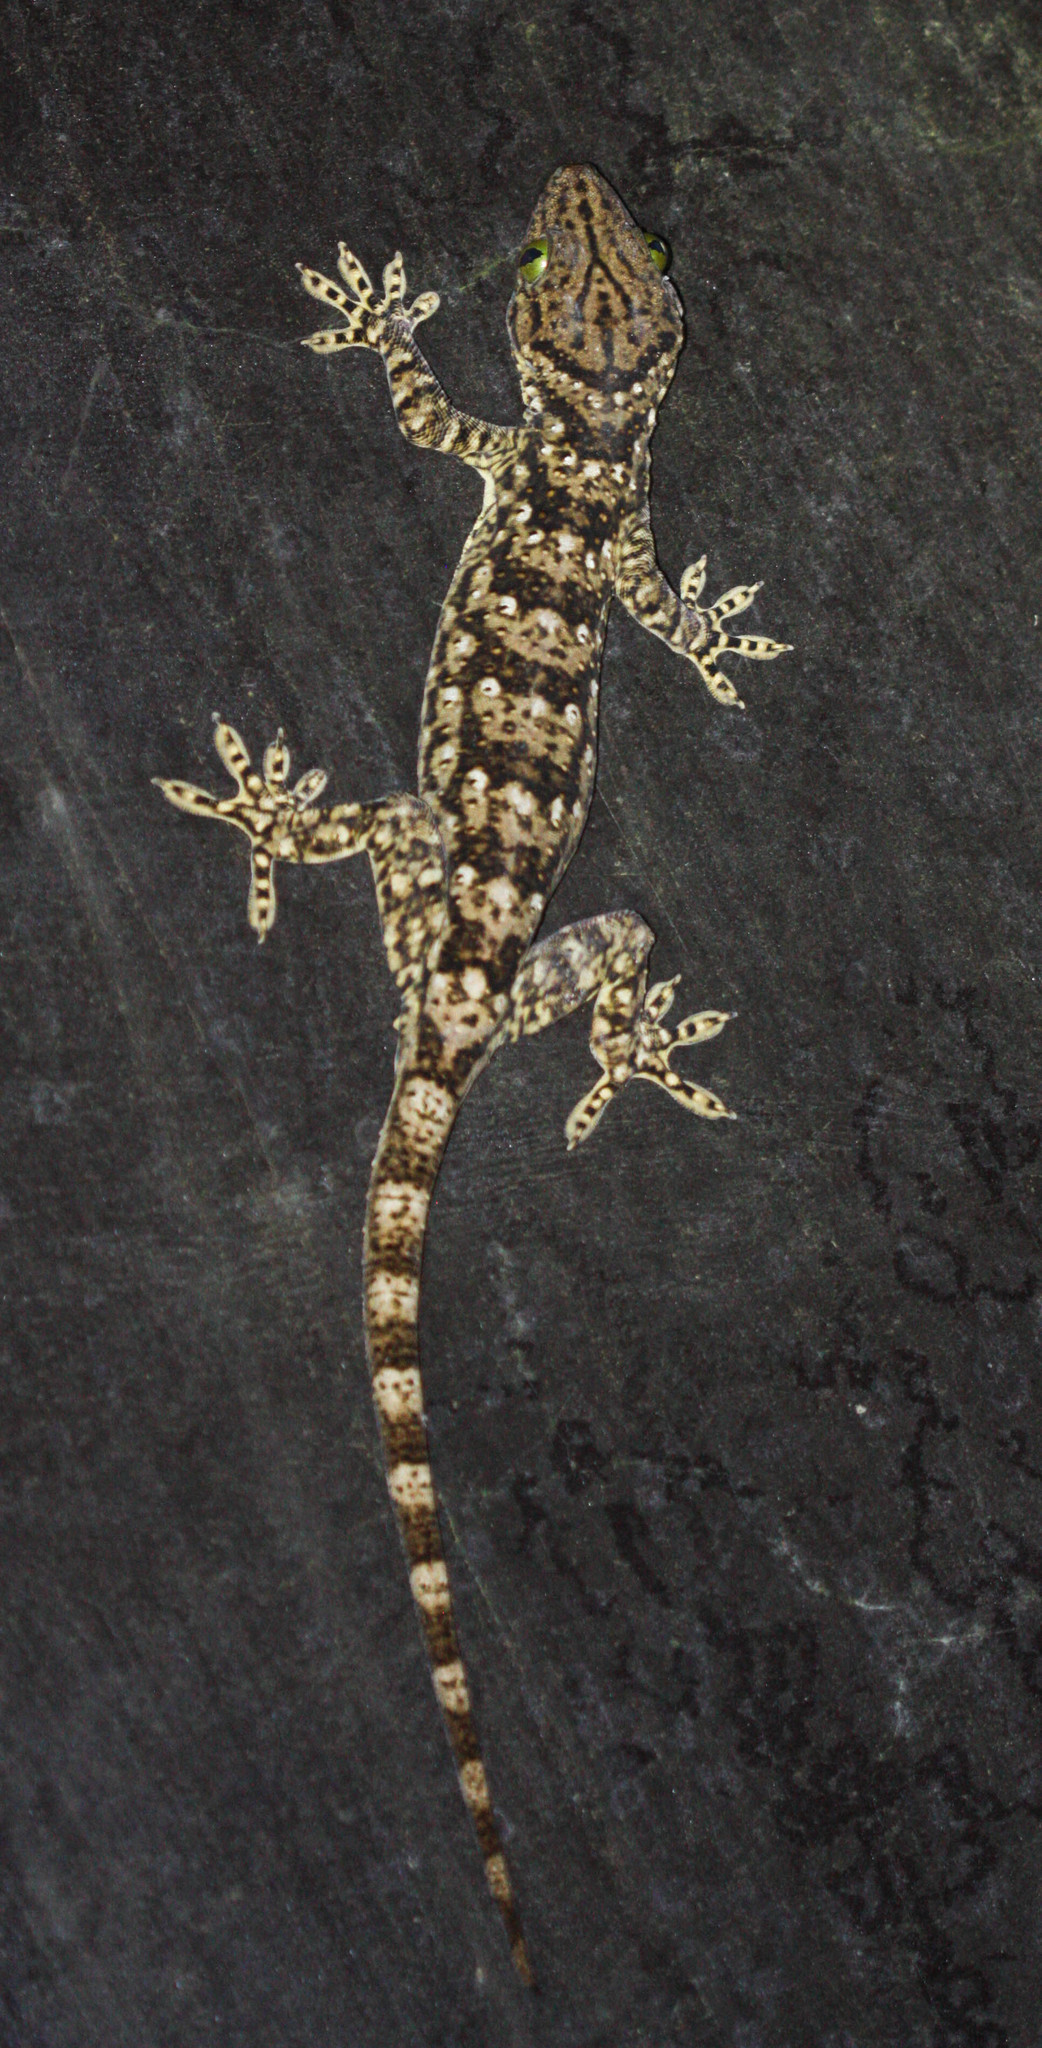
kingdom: Animalia
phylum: Chordata
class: Squamata
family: Gekkonidae
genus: Gekko
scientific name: Gekko smithii
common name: Large forest gecko
